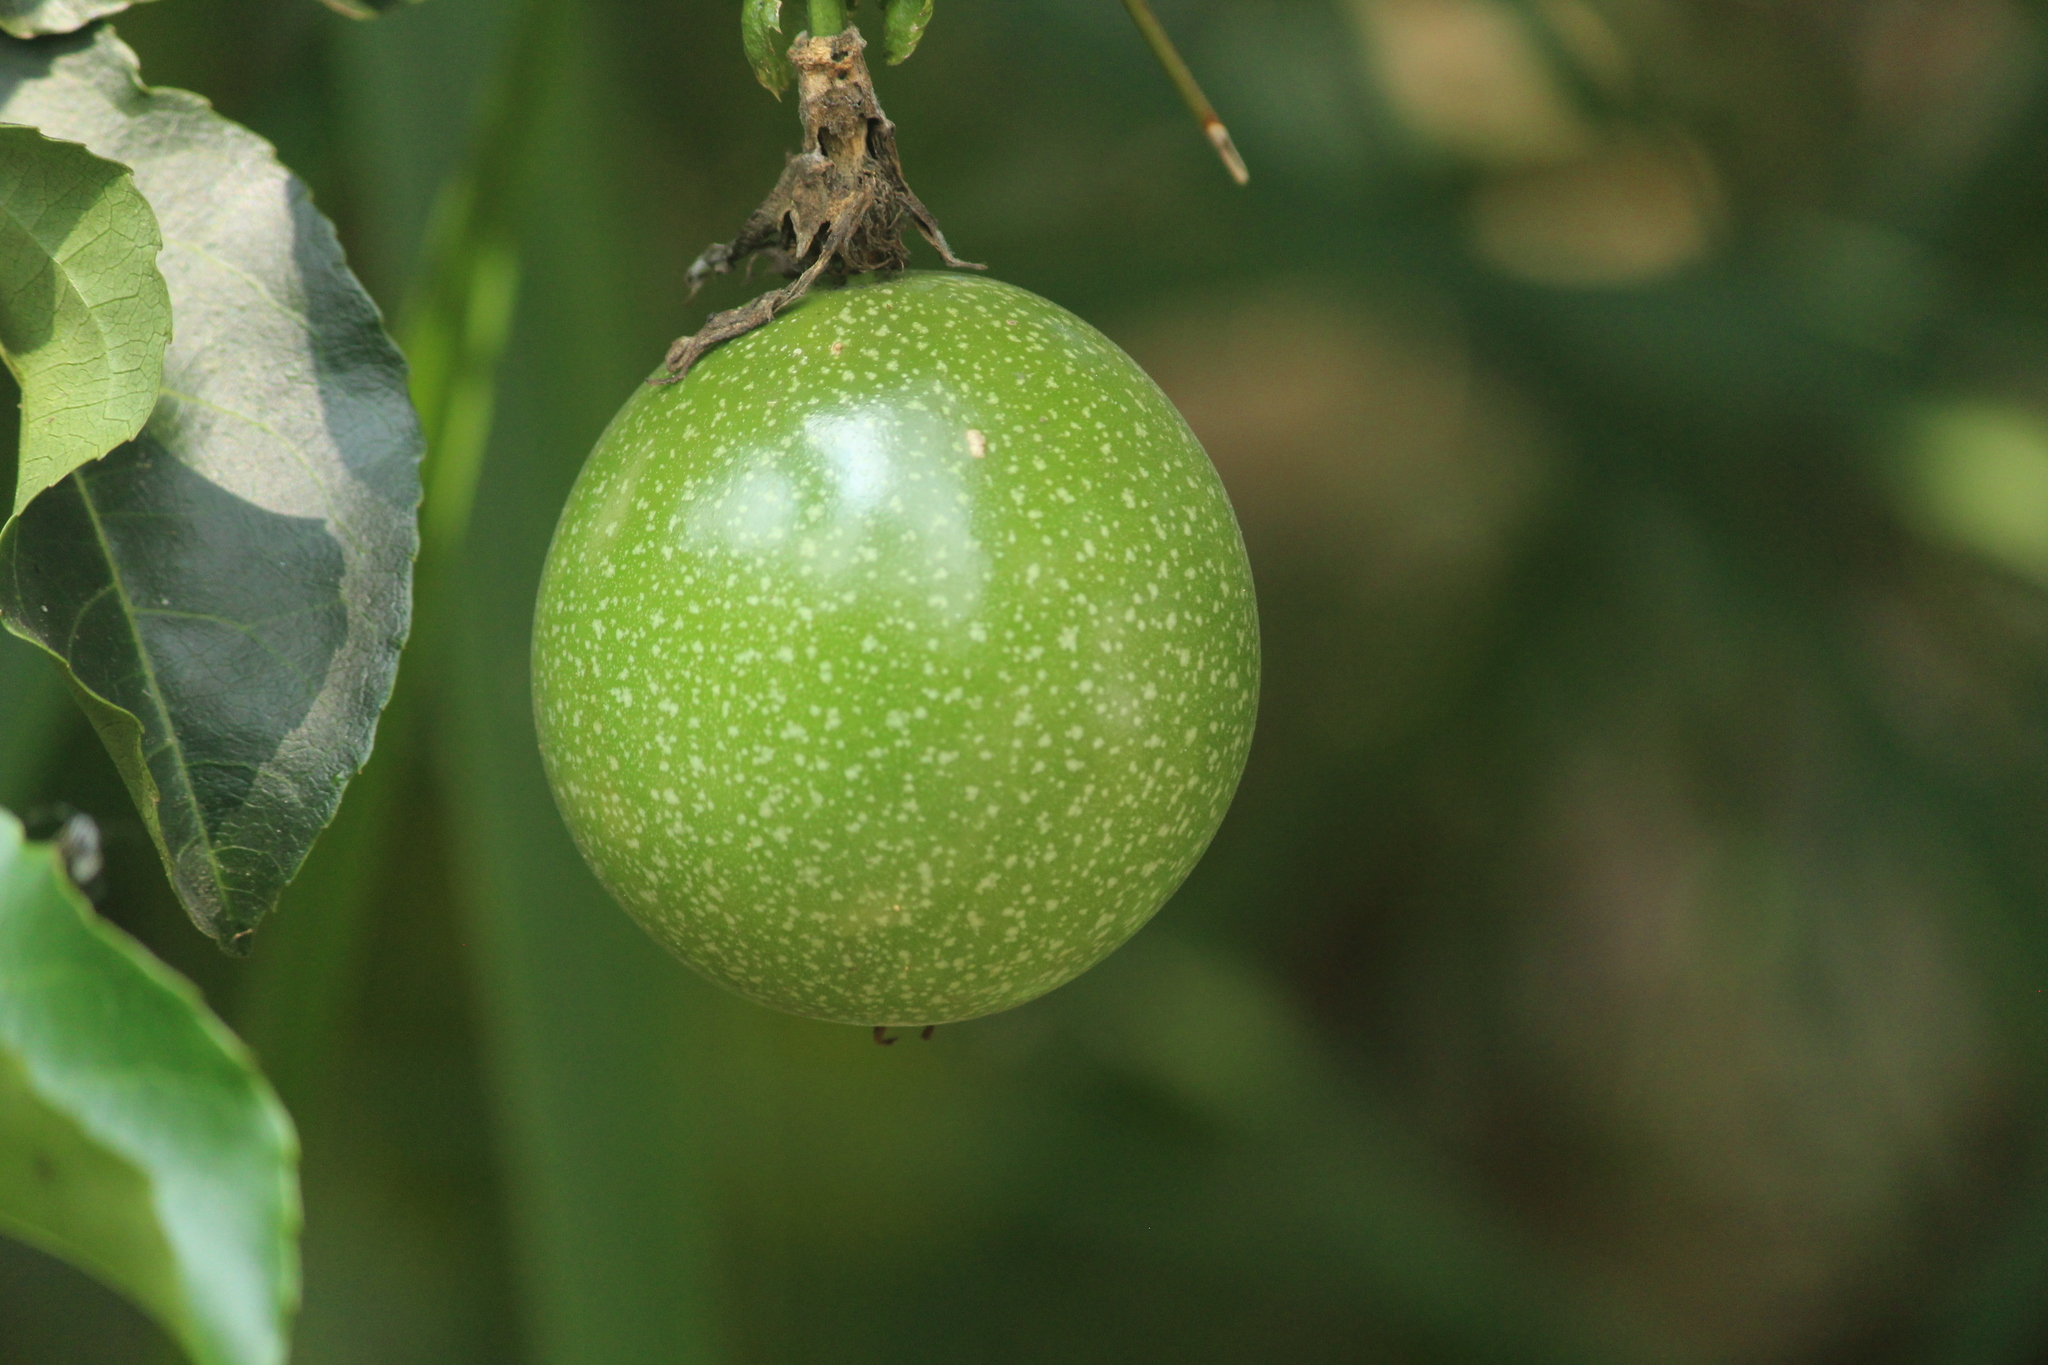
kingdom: Plantae
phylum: Tracheophyta
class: Magnoliopsida
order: Malpighiales
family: Passifloraceae
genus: Passiflora
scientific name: Passiflora edulis
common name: Purple granadilla
